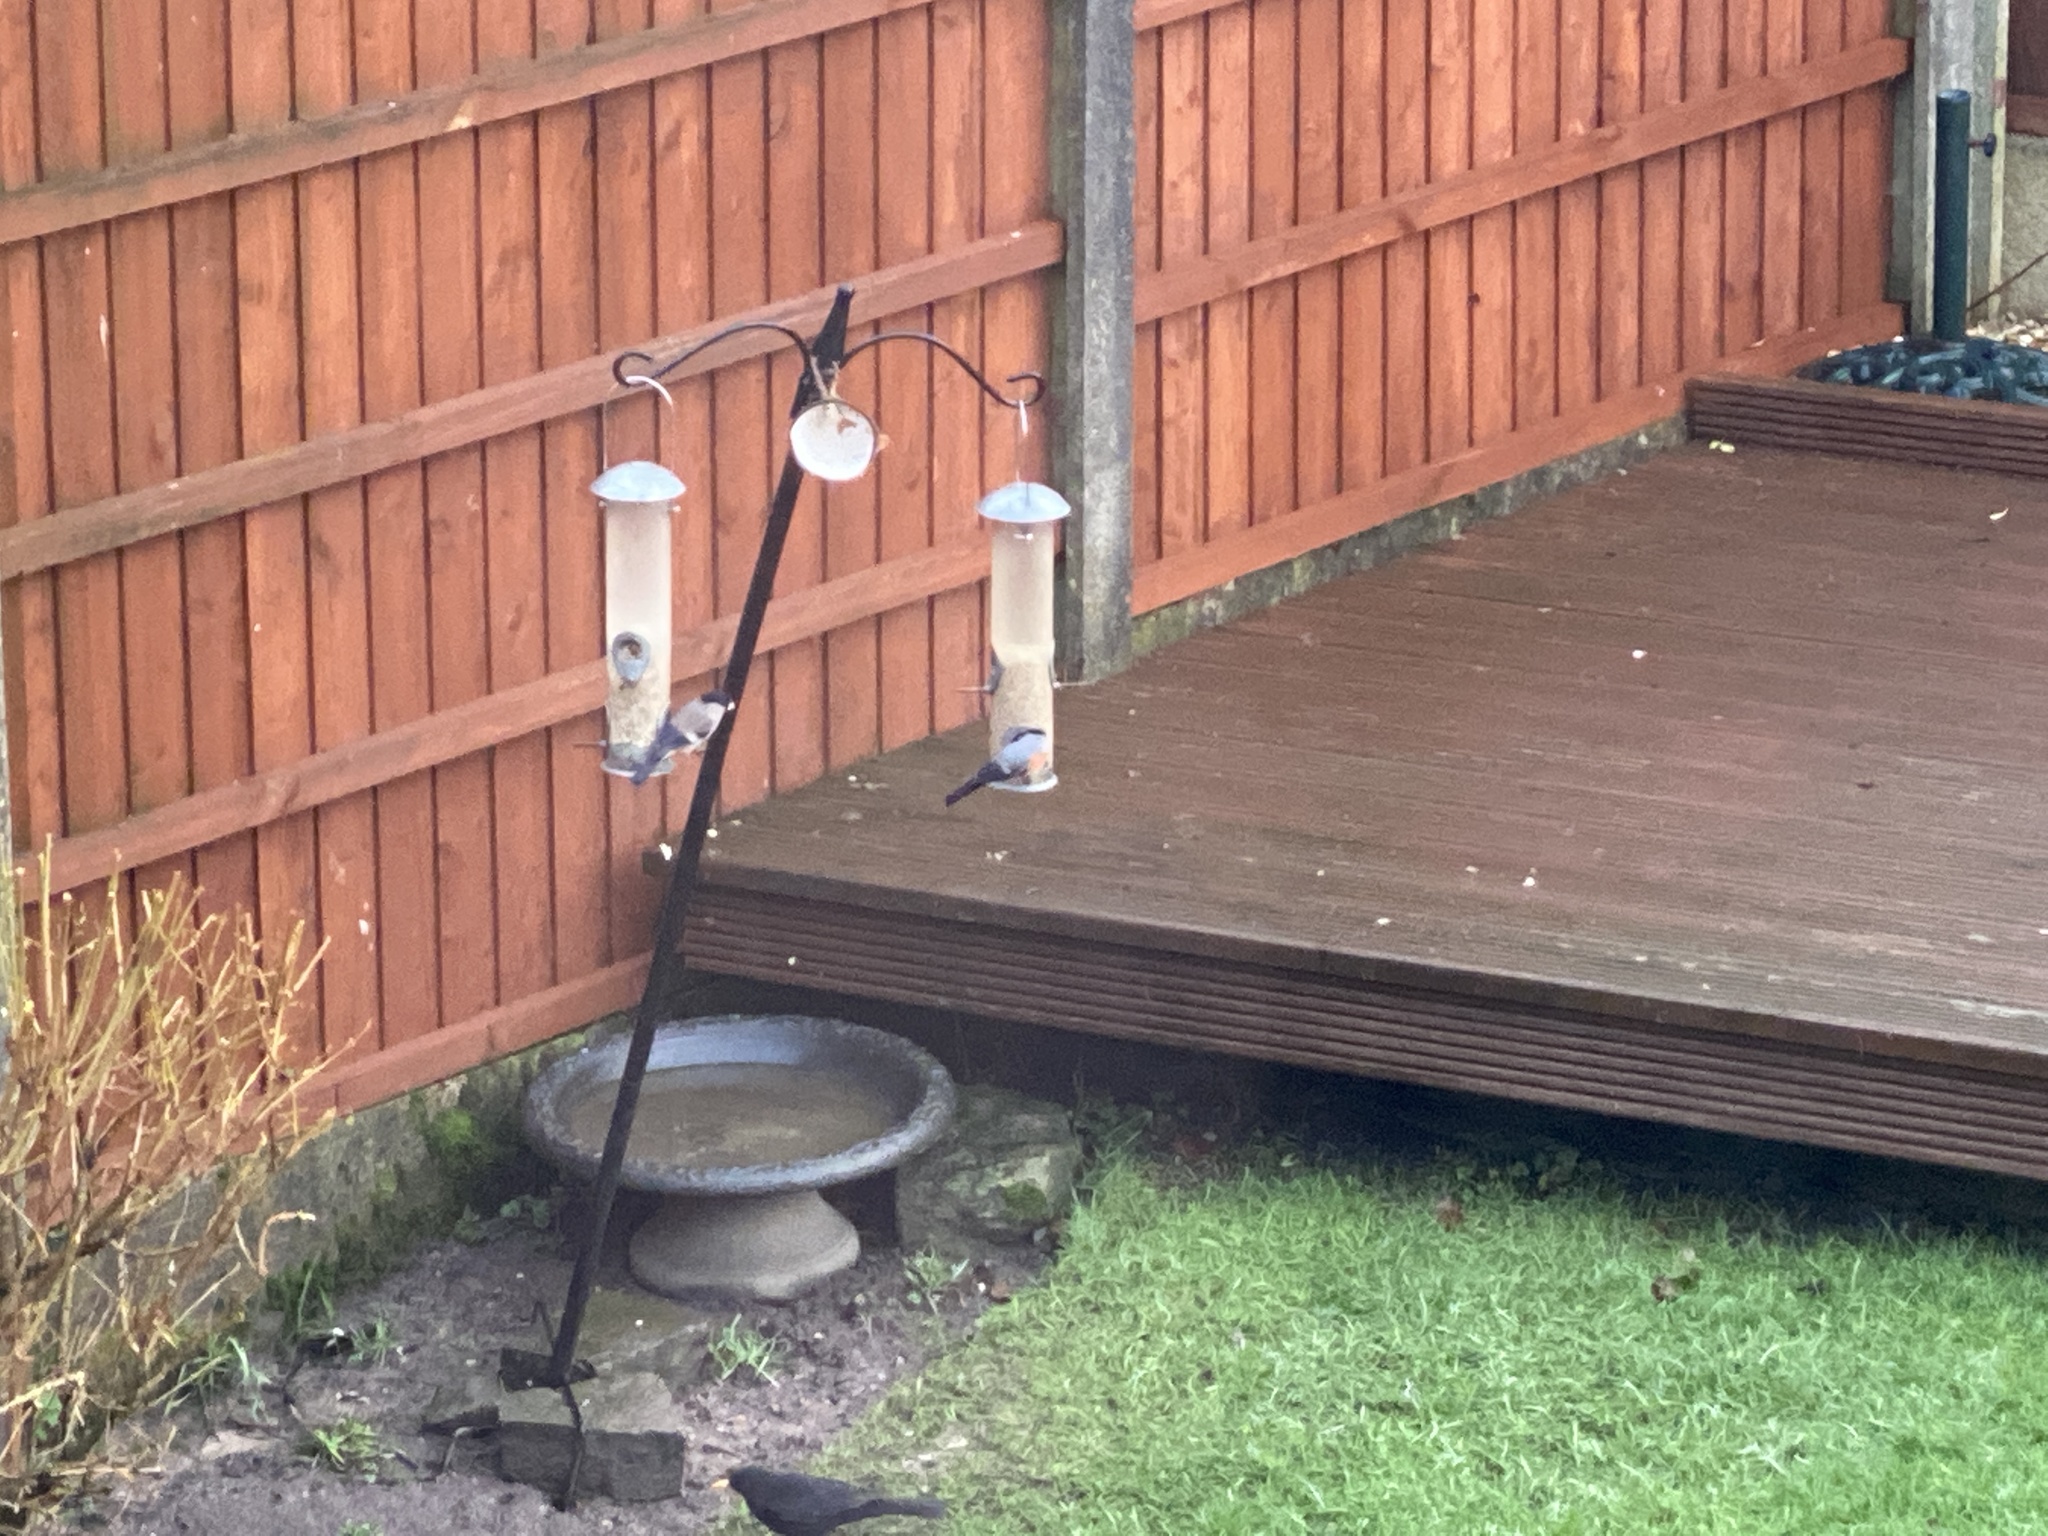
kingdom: Animalia
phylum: Chordata
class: Aves
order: Passeriformes
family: Fringillidae
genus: Pyrrhula
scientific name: Pyrrhula pyrrhula
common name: Eurasian bullfinch
